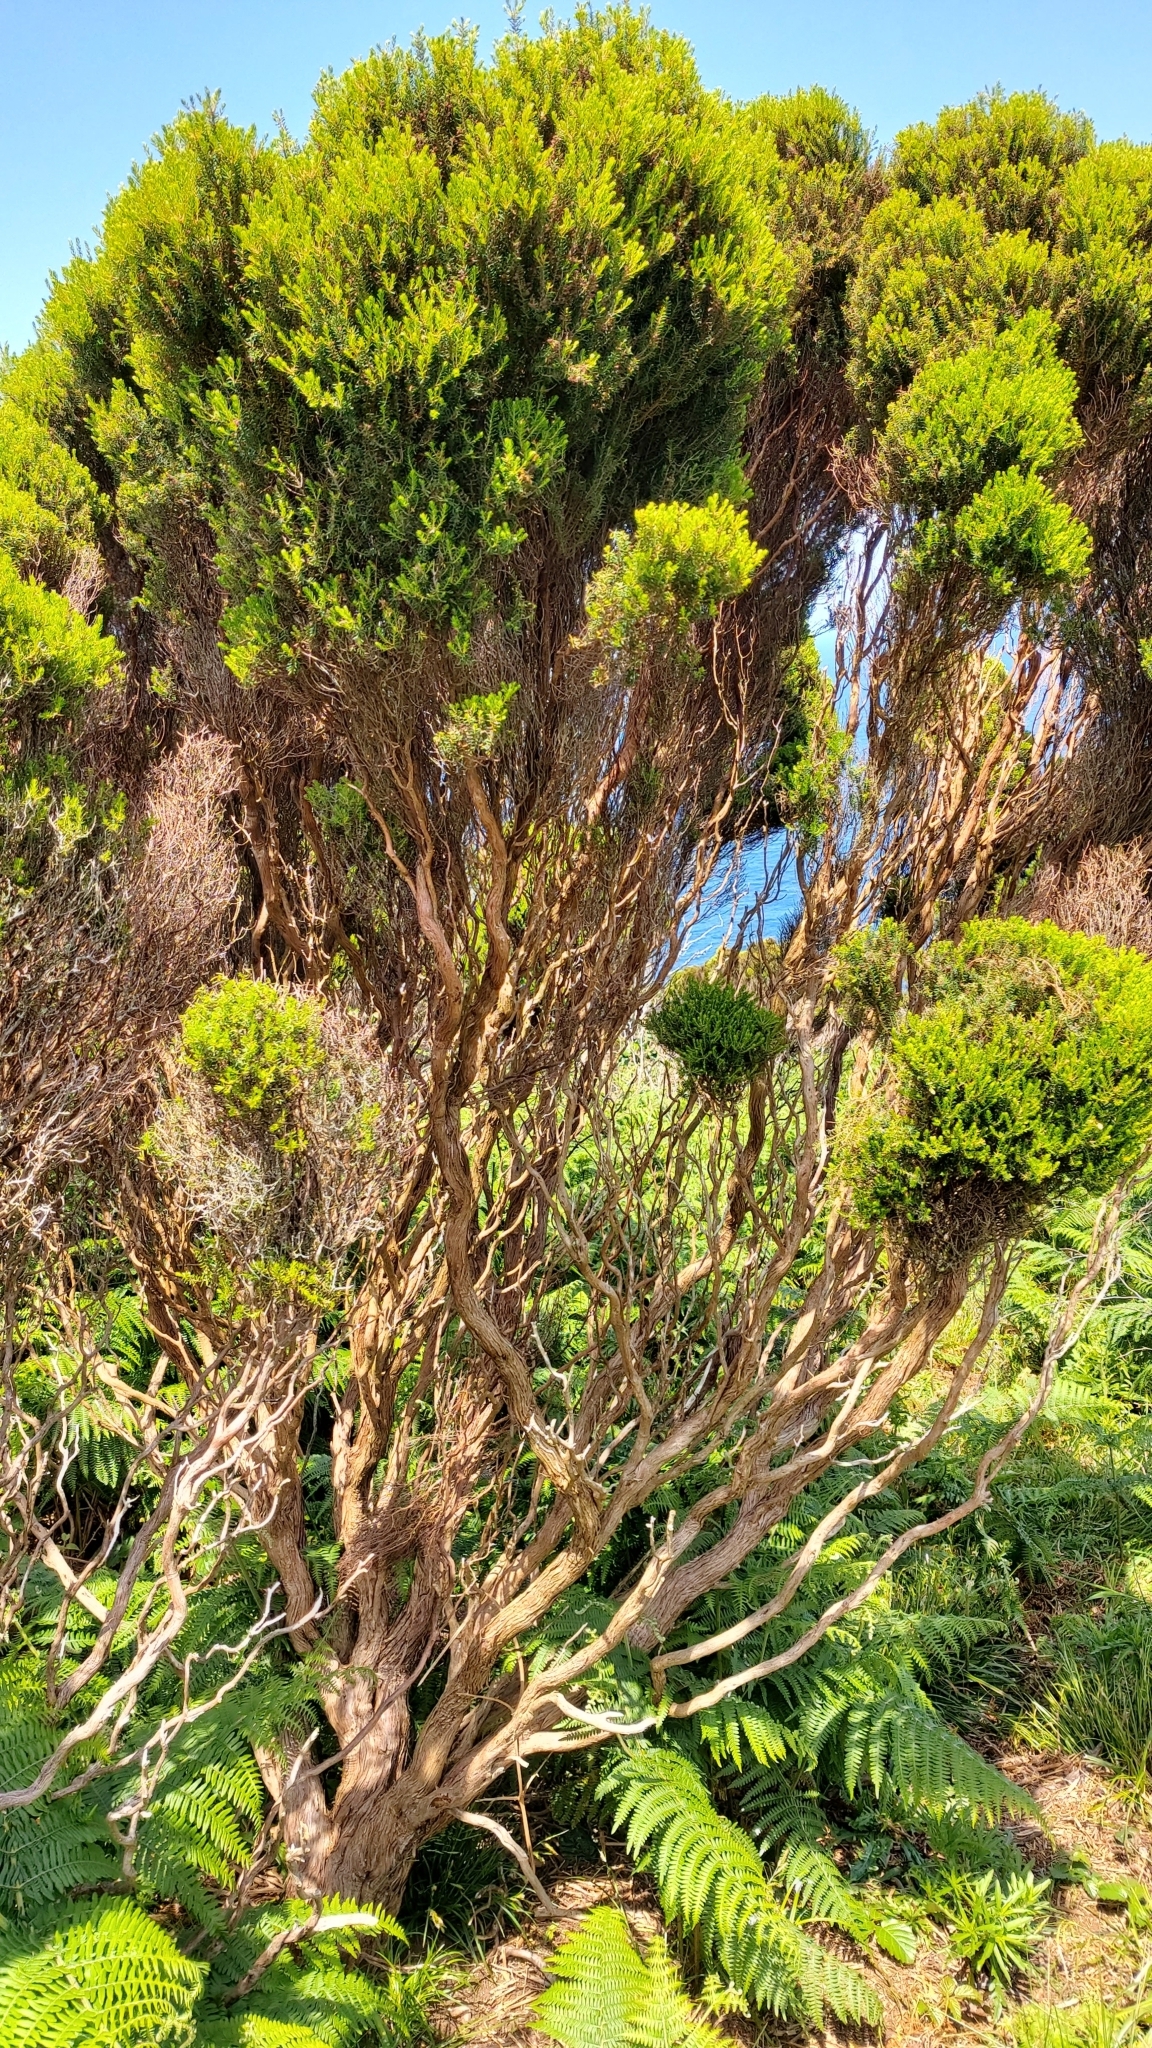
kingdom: Plantae
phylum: Tracheophyta
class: Magnoliopsida
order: Ericales
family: Ericaceae
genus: Erica
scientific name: Erica azorica
